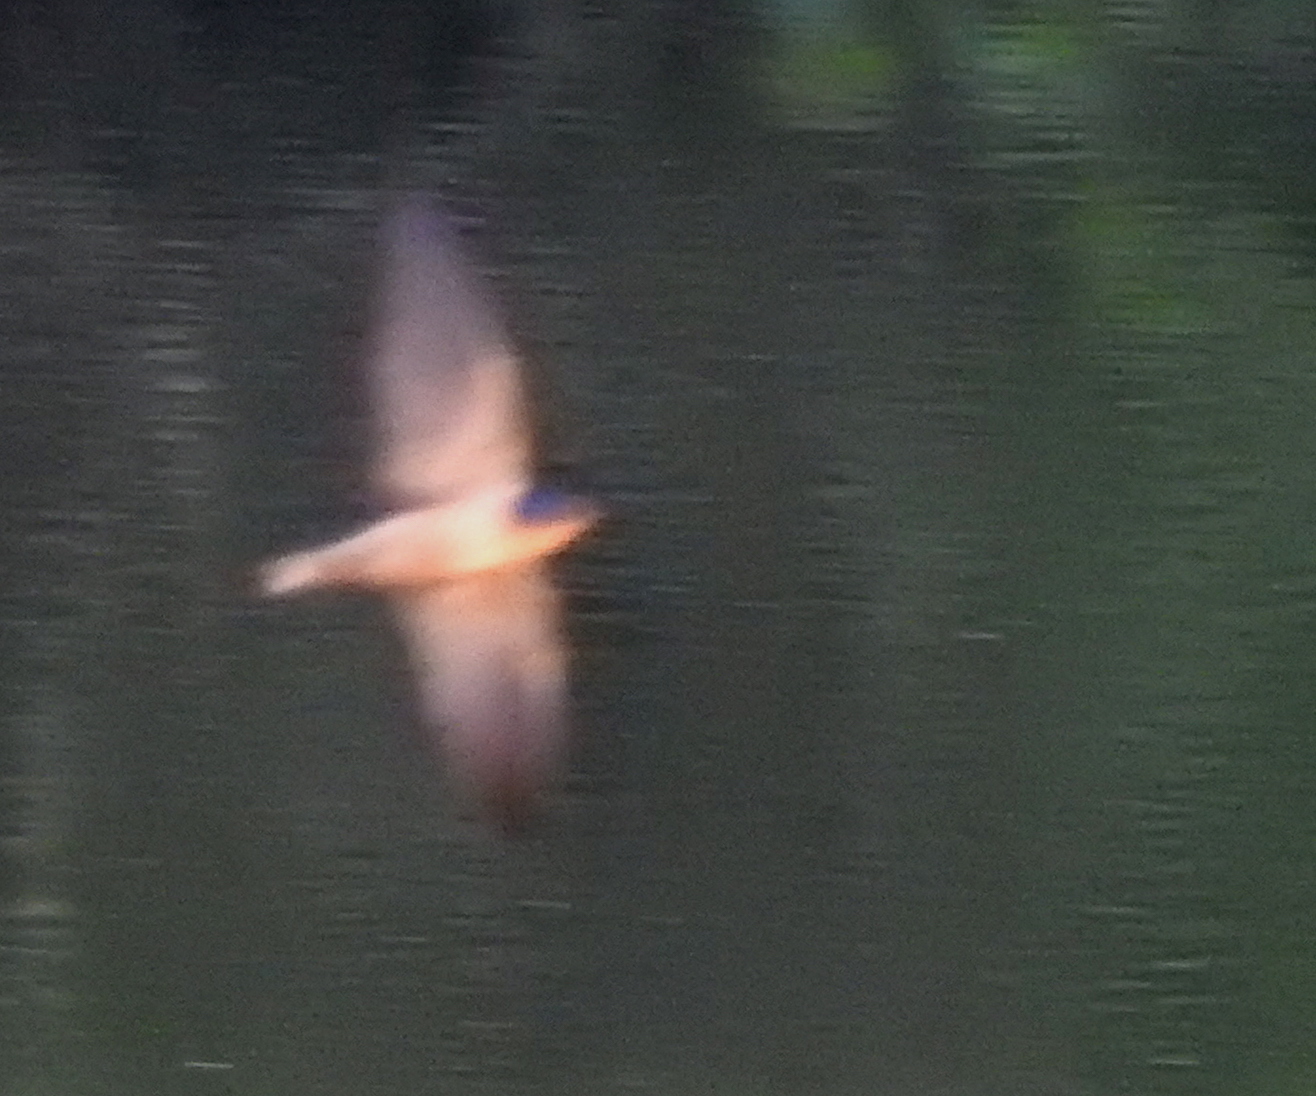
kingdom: Animalia
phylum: Chordata
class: Aves
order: Passeriformes
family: Hirundinidae
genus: Hirundo
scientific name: Hirundo rustica
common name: Barn swallow
